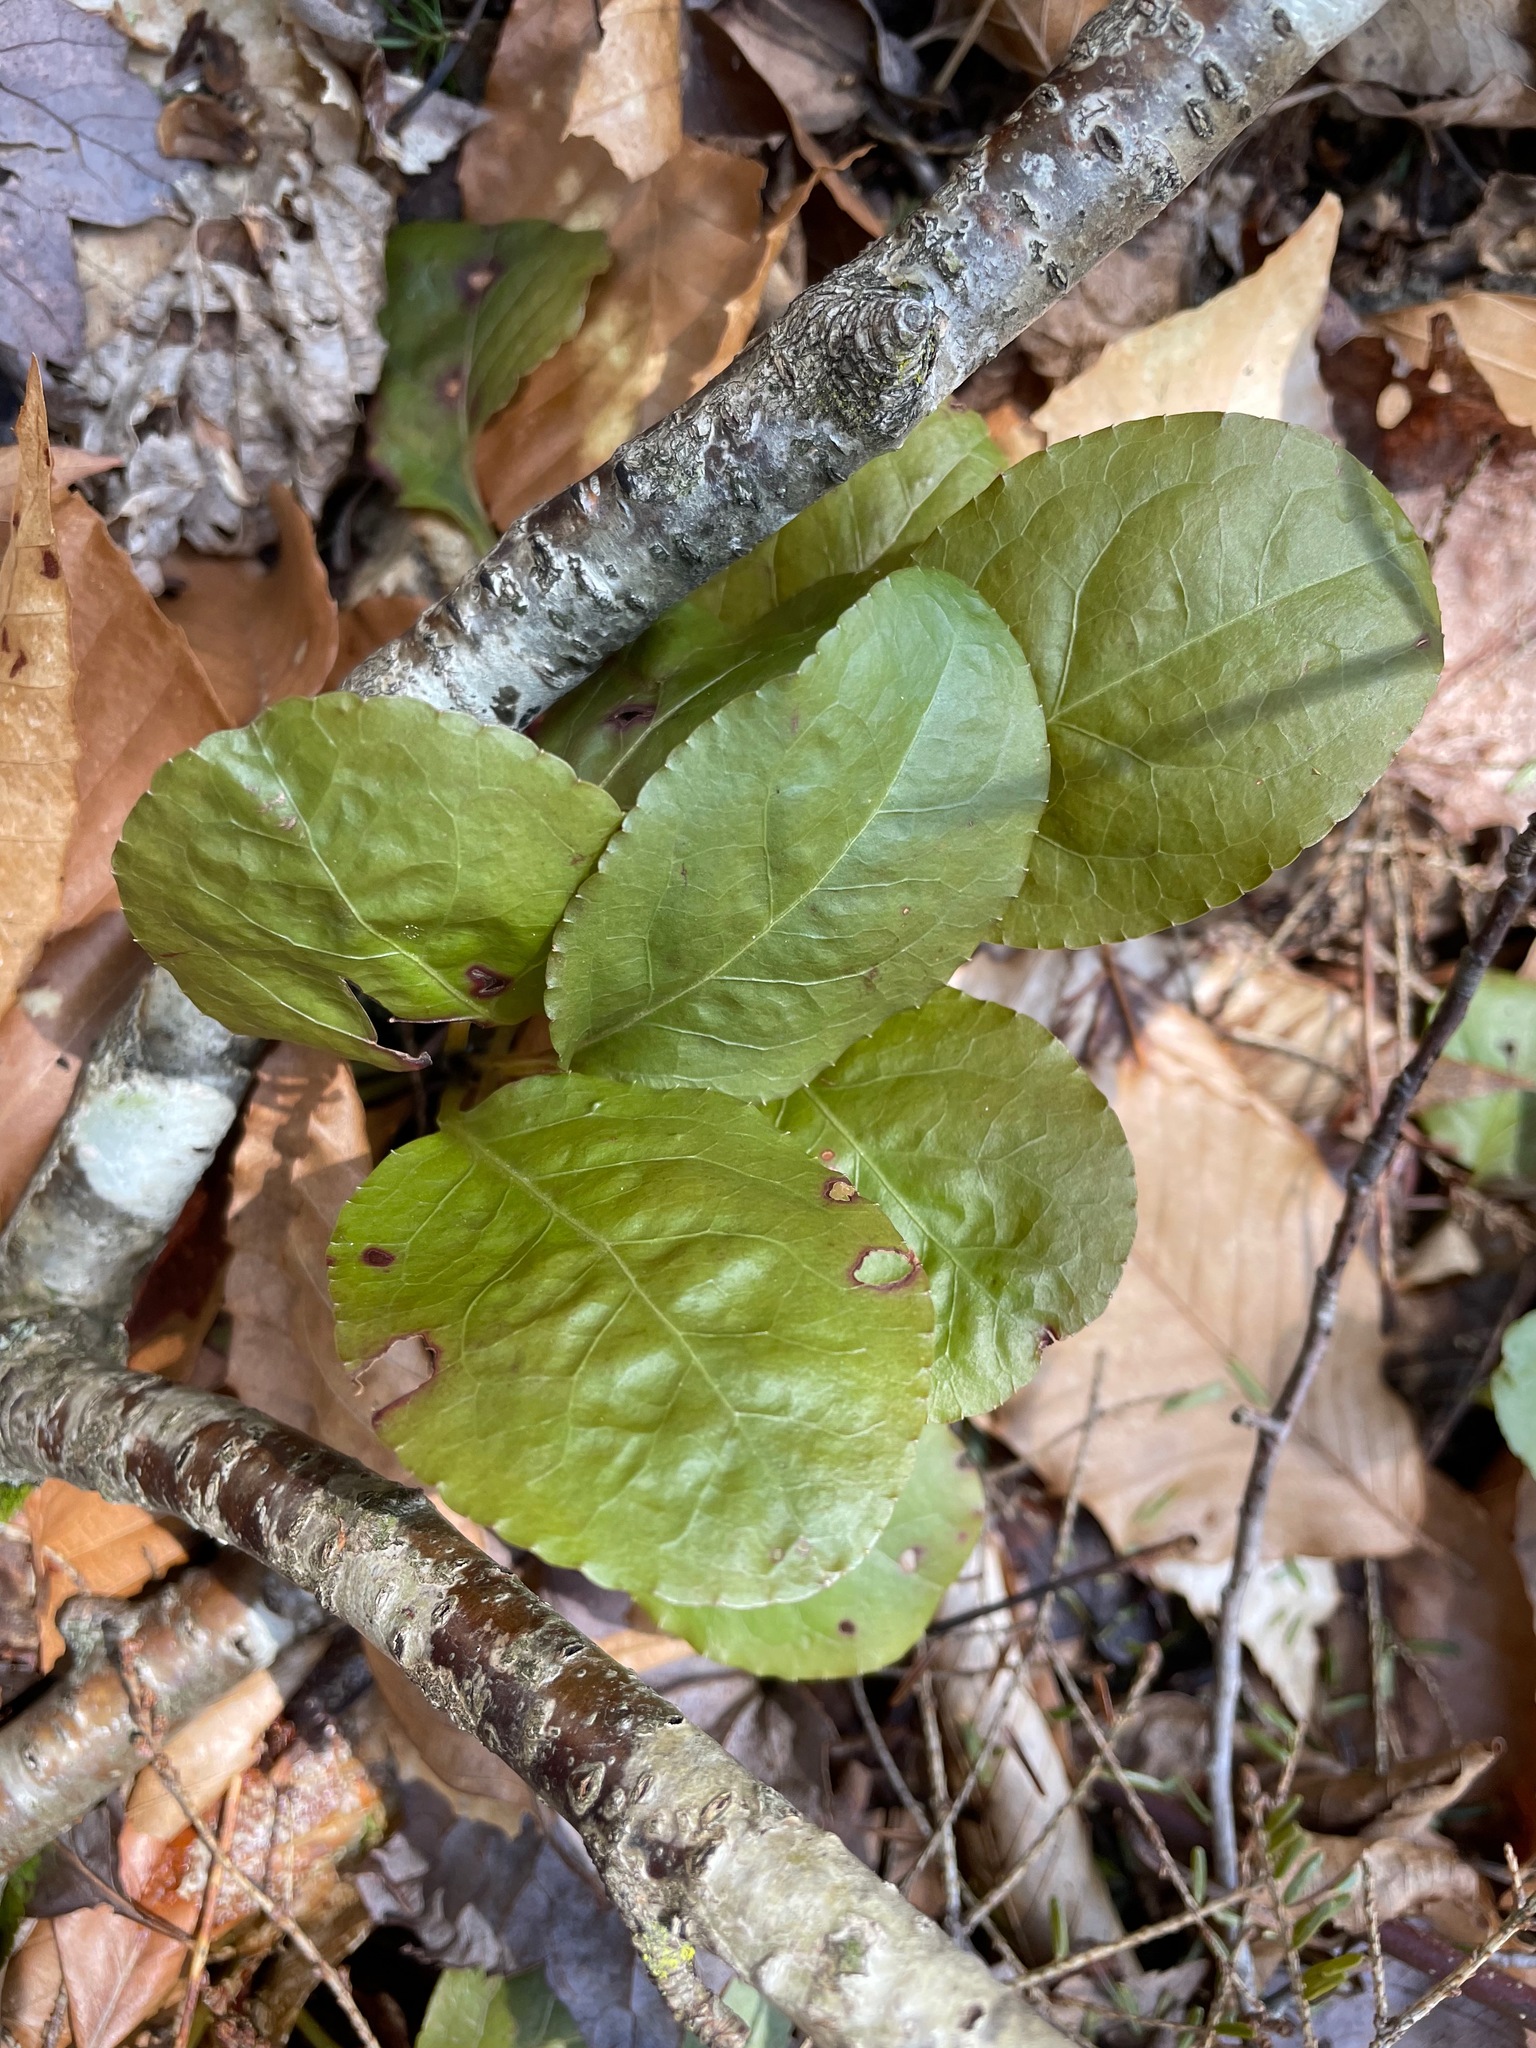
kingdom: Plantae
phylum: Tracheophyta
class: Magnoliopsida
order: Ericales
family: Ericaceae
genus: Pyrola
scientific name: Pyrola elliptica
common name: Shinleaf
